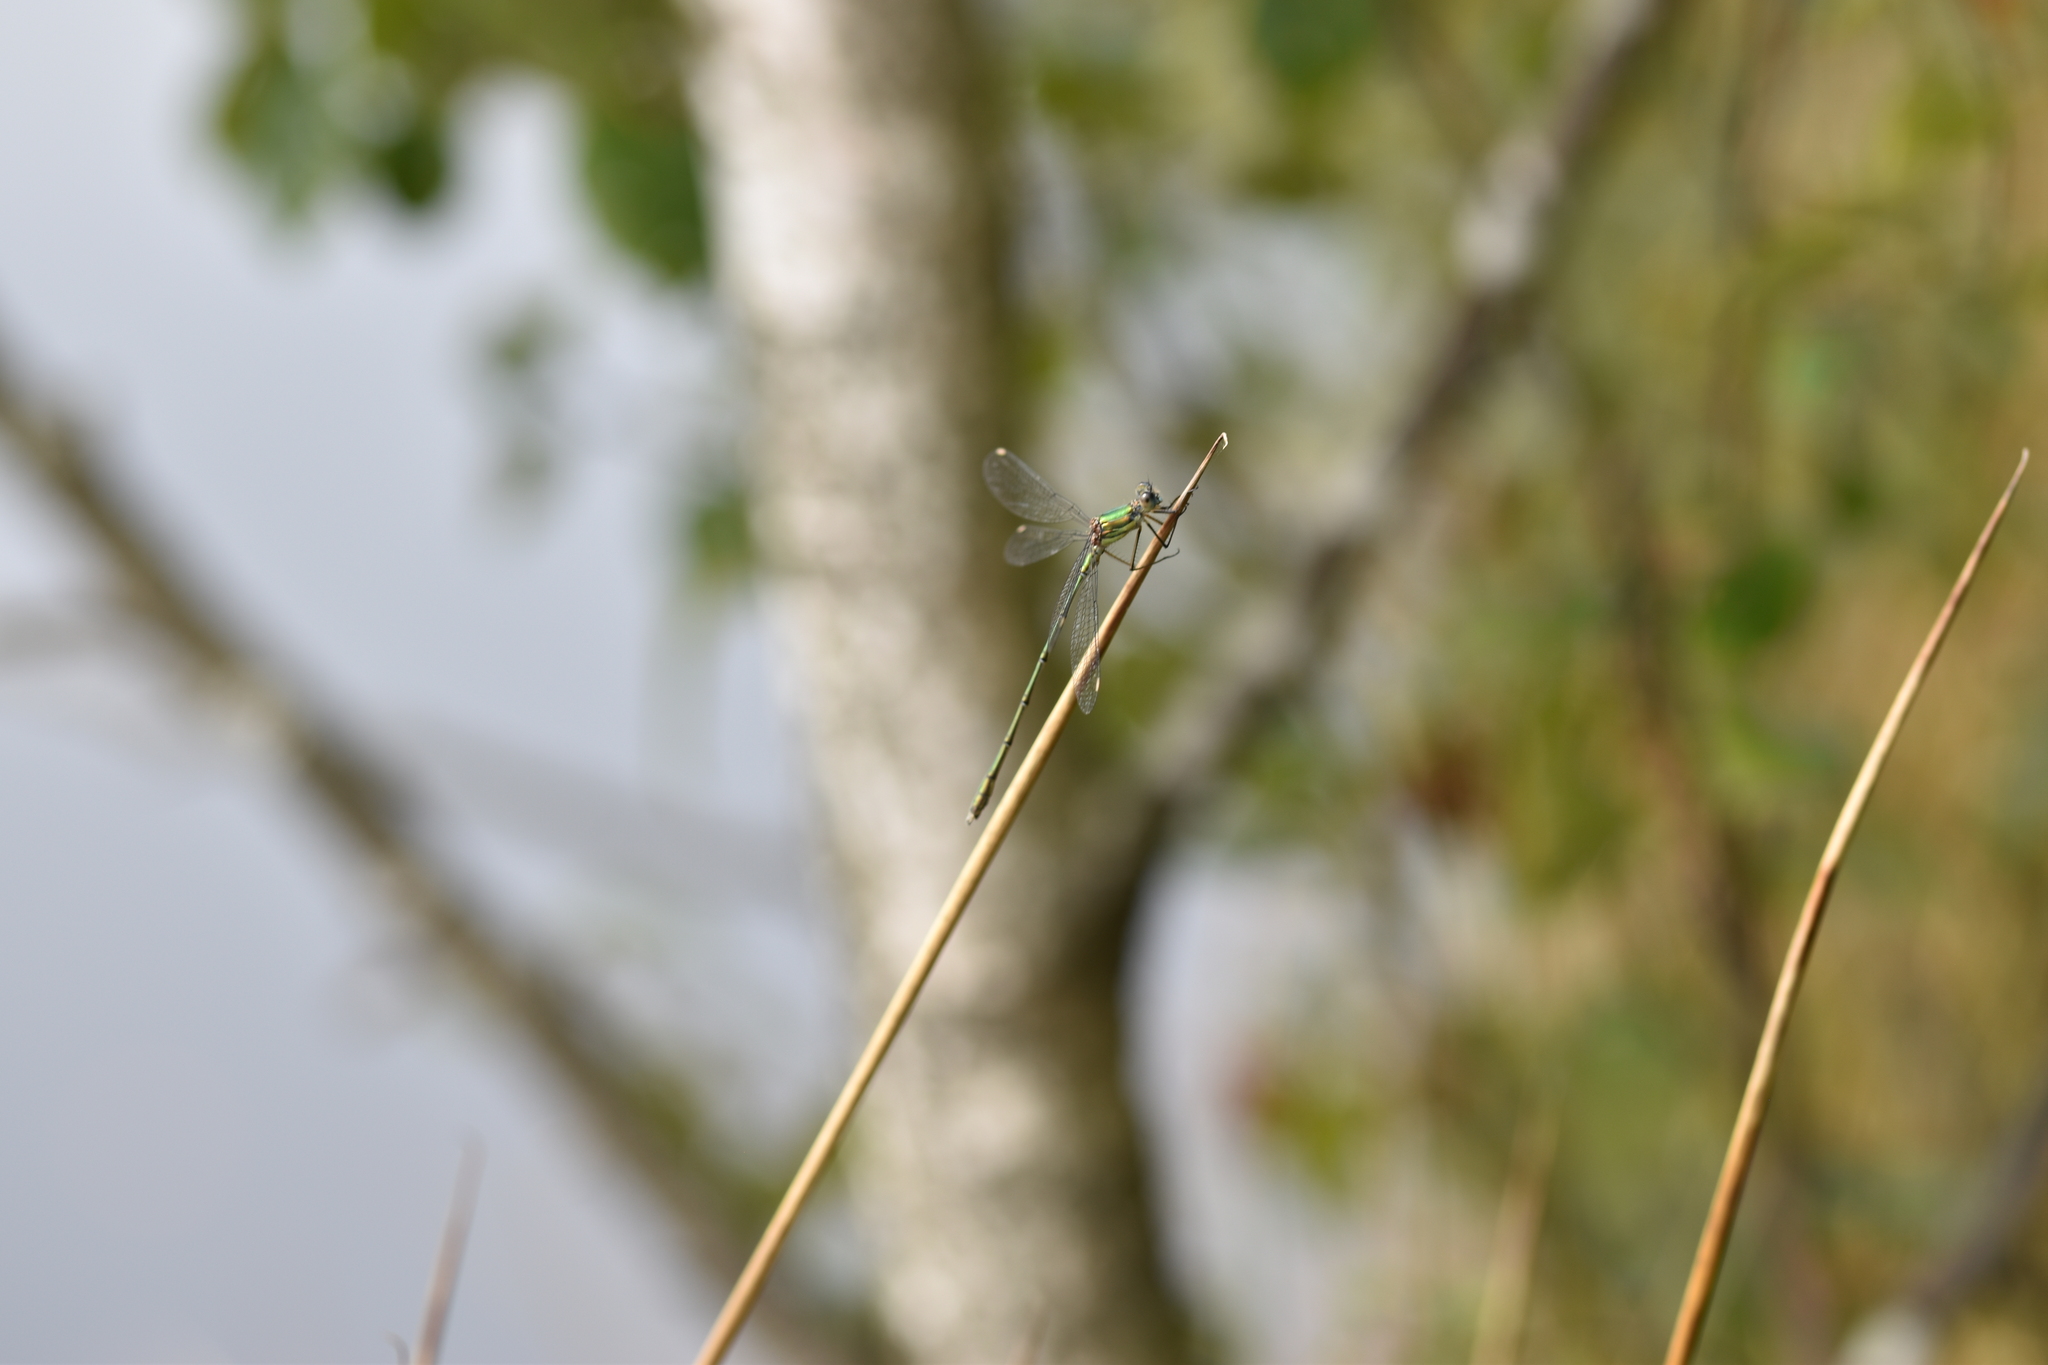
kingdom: Animalia
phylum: Arthropoda
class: Insecta
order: Odonata
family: Lestidae
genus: Chalcolestes
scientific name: Chalcolestes viridis
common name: Green emerald damselfly
